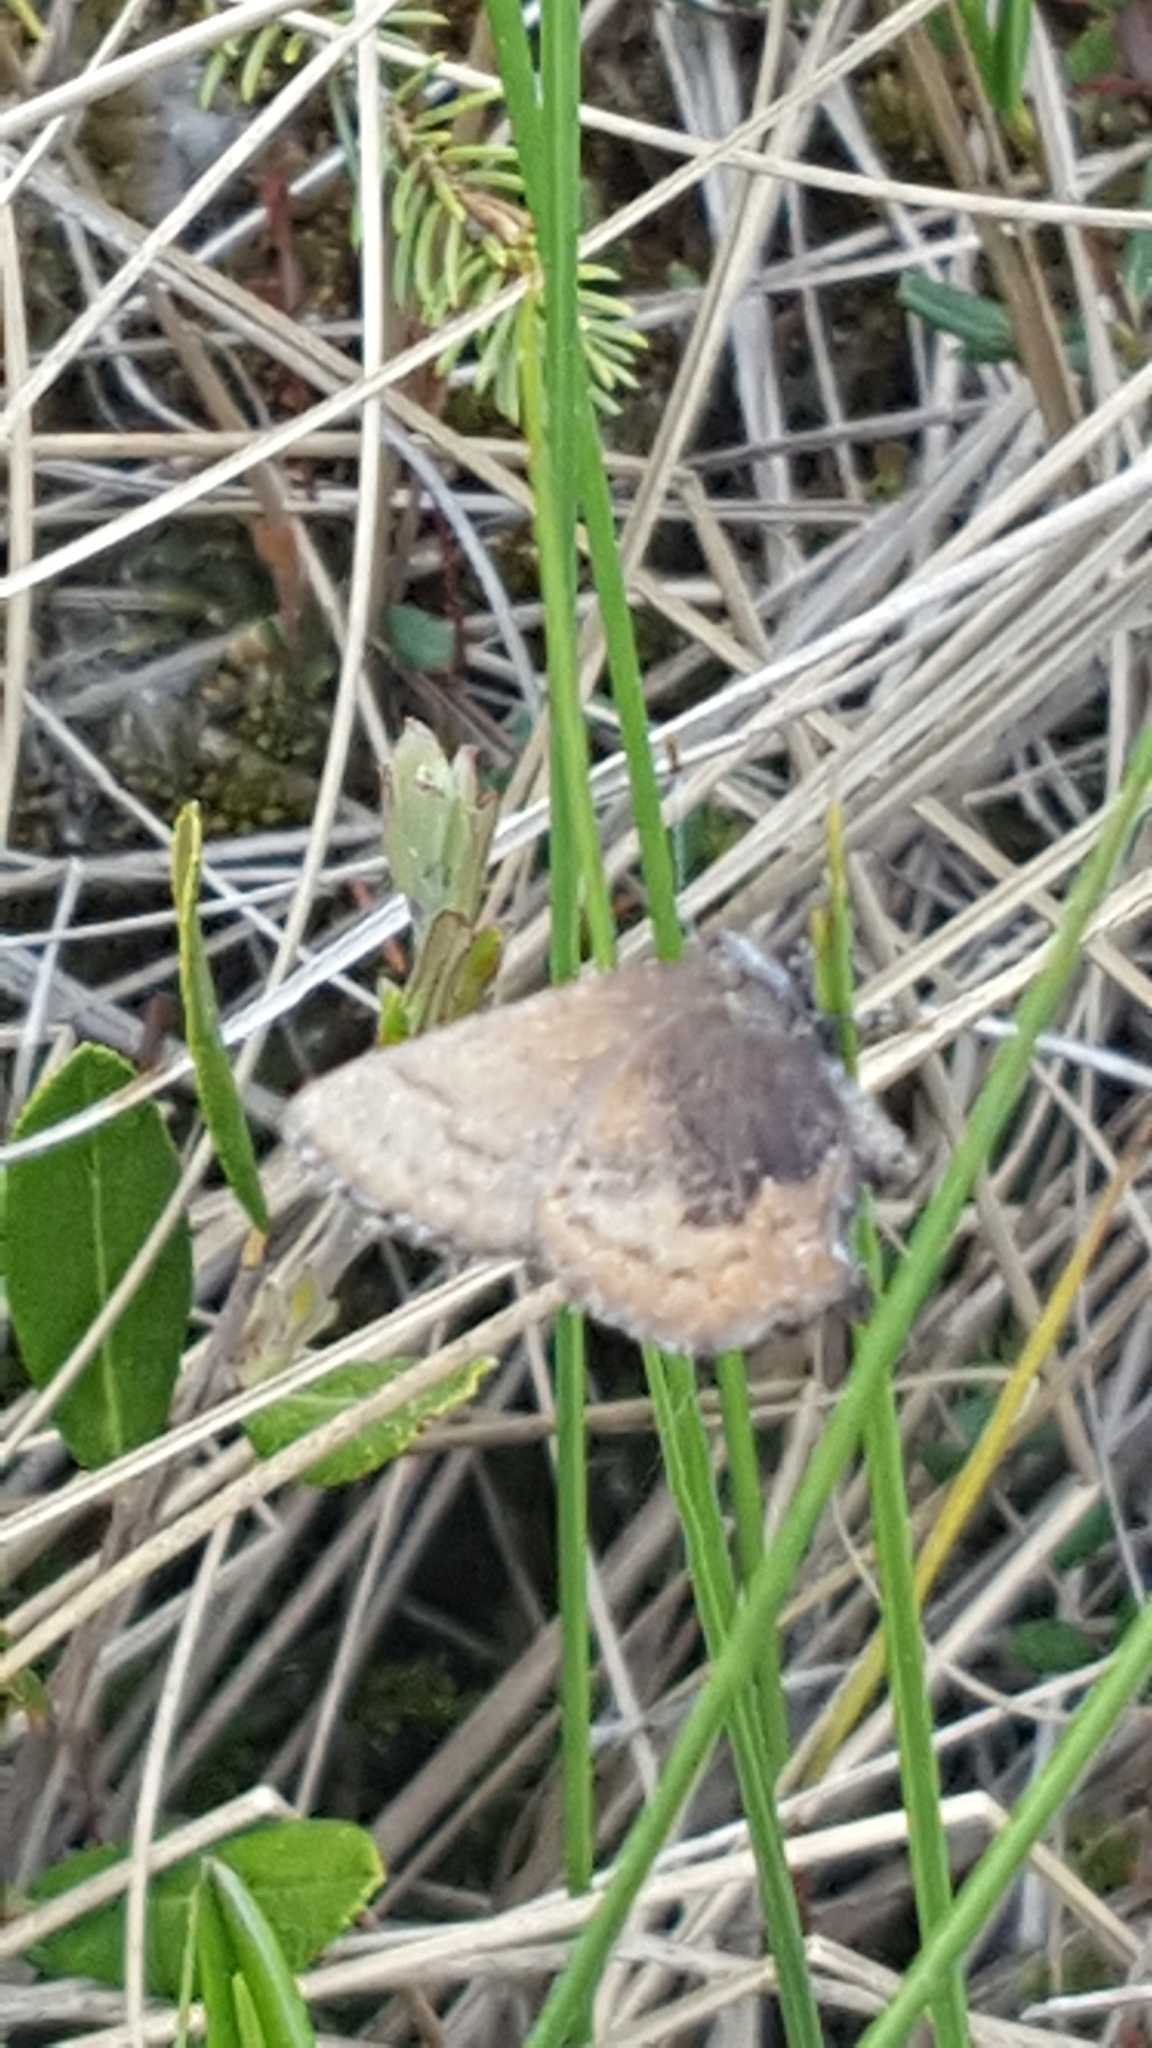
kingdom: Animalia
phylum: Arthropoda
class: Insecta
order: Lepidoptera
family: Lycaenidae
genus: Incisalia
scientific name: Incisalia irioides
